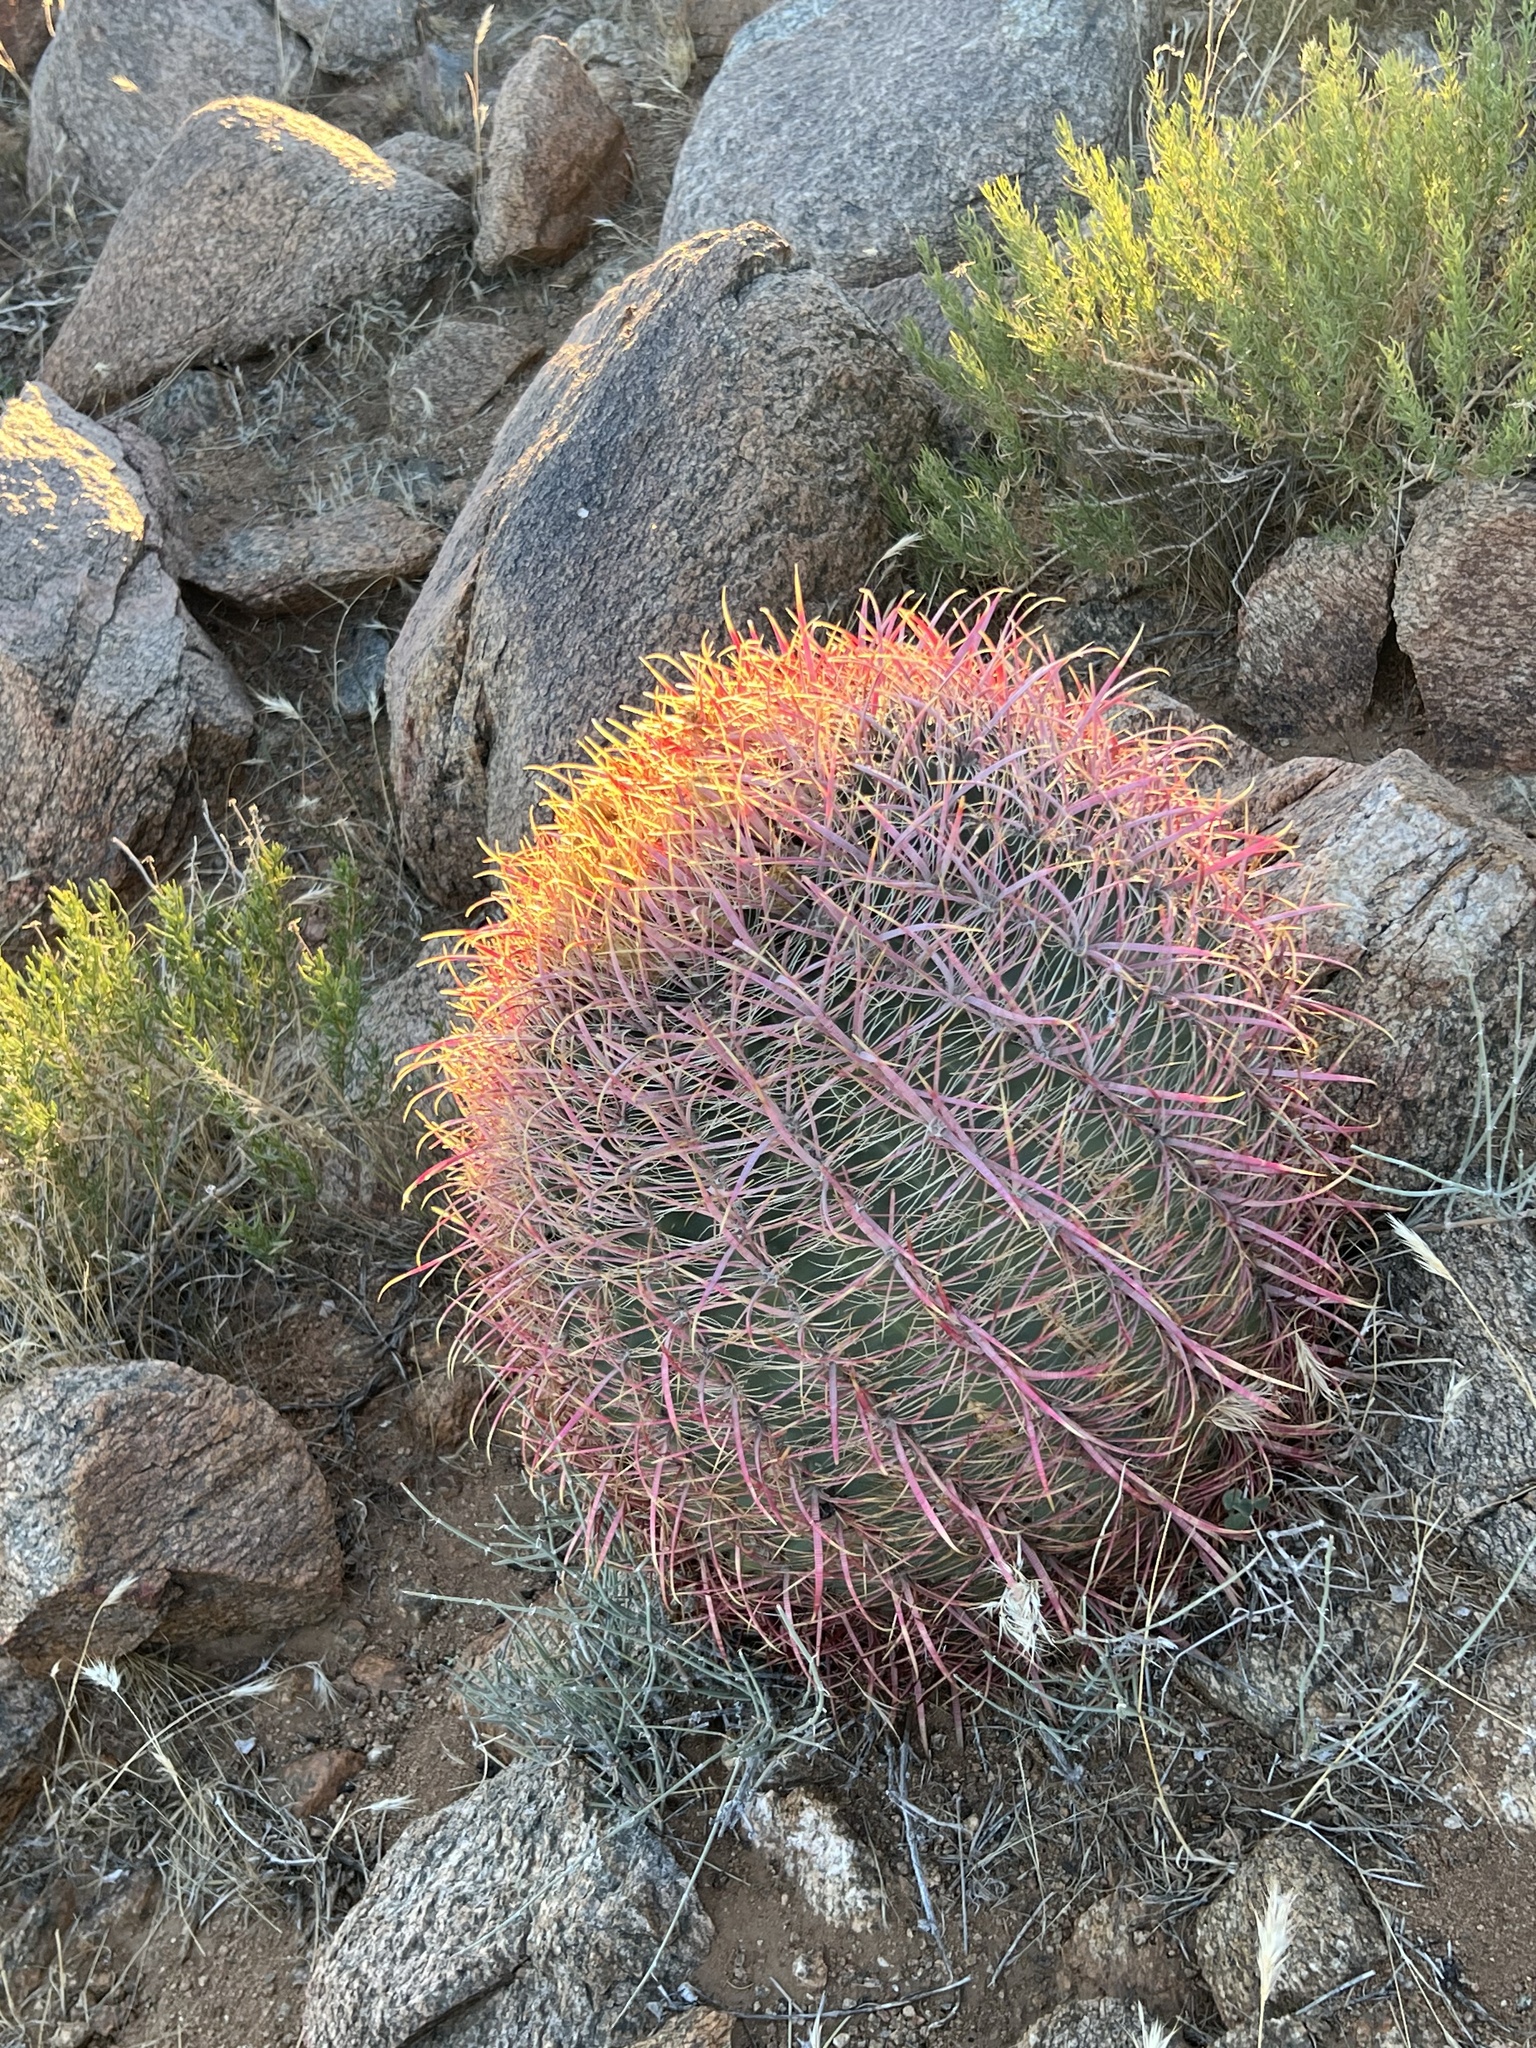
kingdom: Plantae
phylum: Tracheophyta
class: Magnoliopsida
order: Caryophyllales
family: Cactaceae
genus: Ferocactus
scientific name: Ferocactus cylindraceus
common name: California barrel cactus
